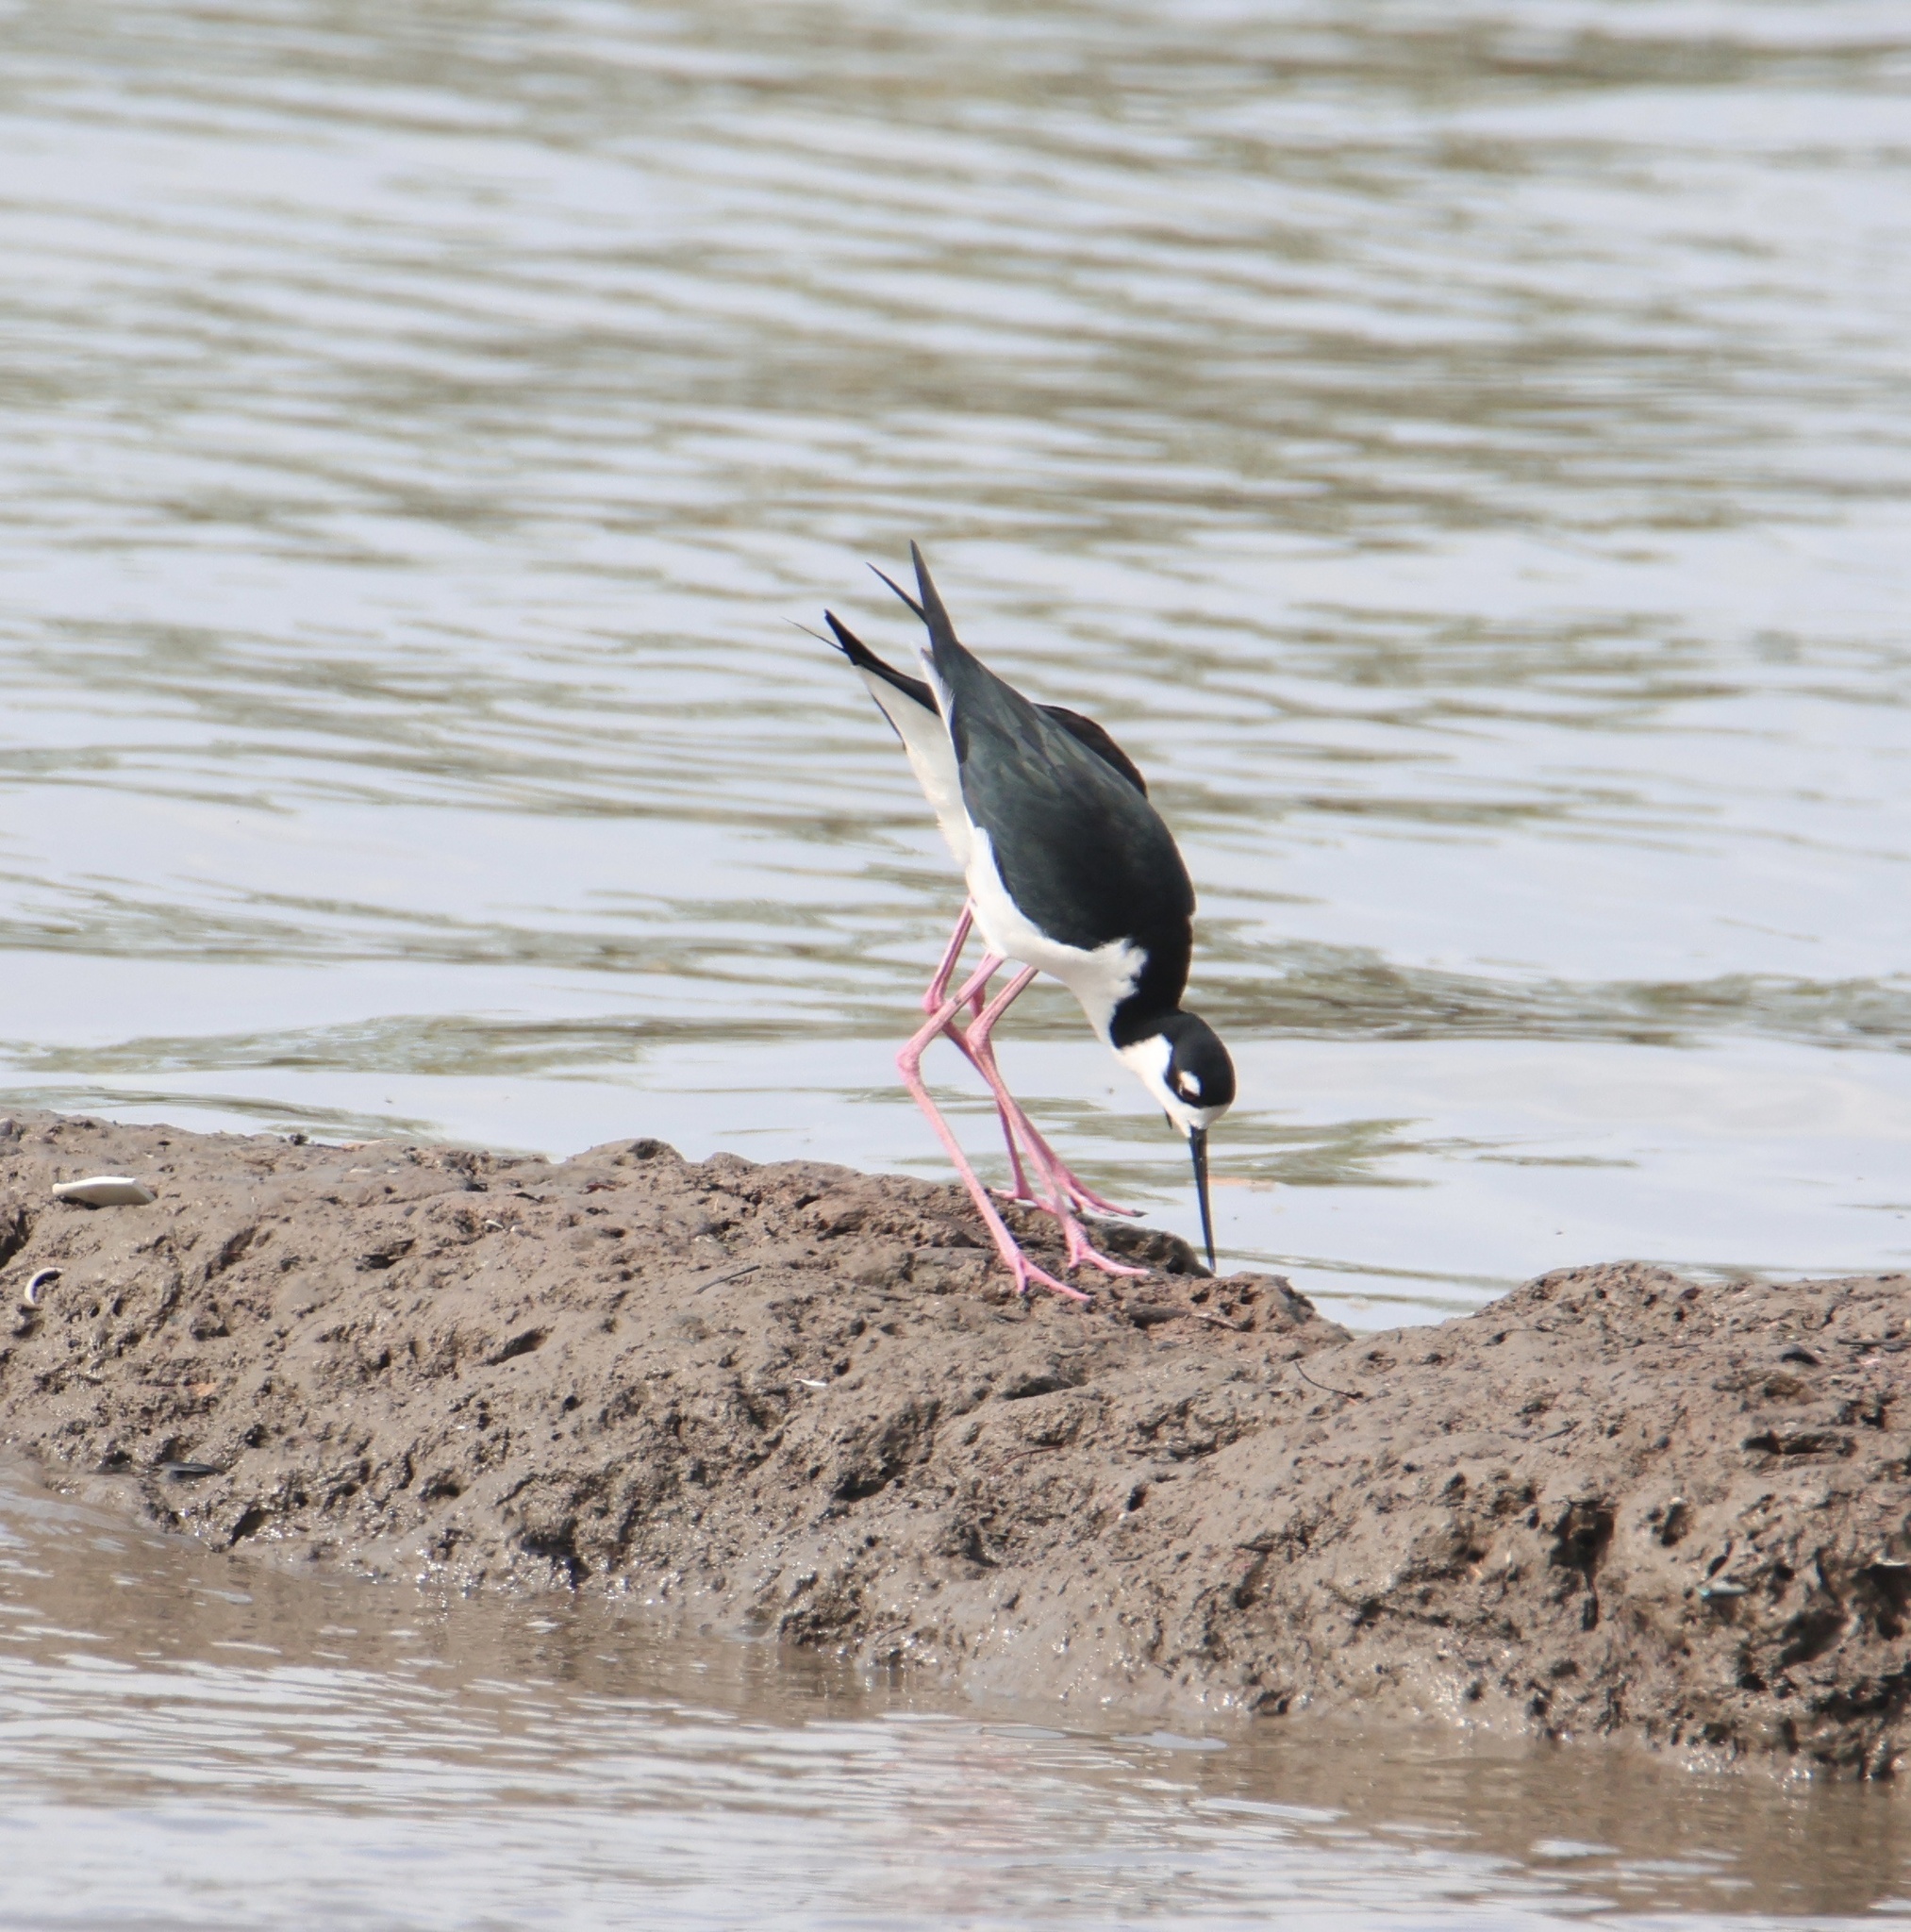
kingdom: Animalia
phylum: Chordata
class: Aves
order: Charadriiformes
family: Recurvirostridae
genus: Himantopus
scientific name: Himantopus mexicanus
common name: Black-necked stilt
